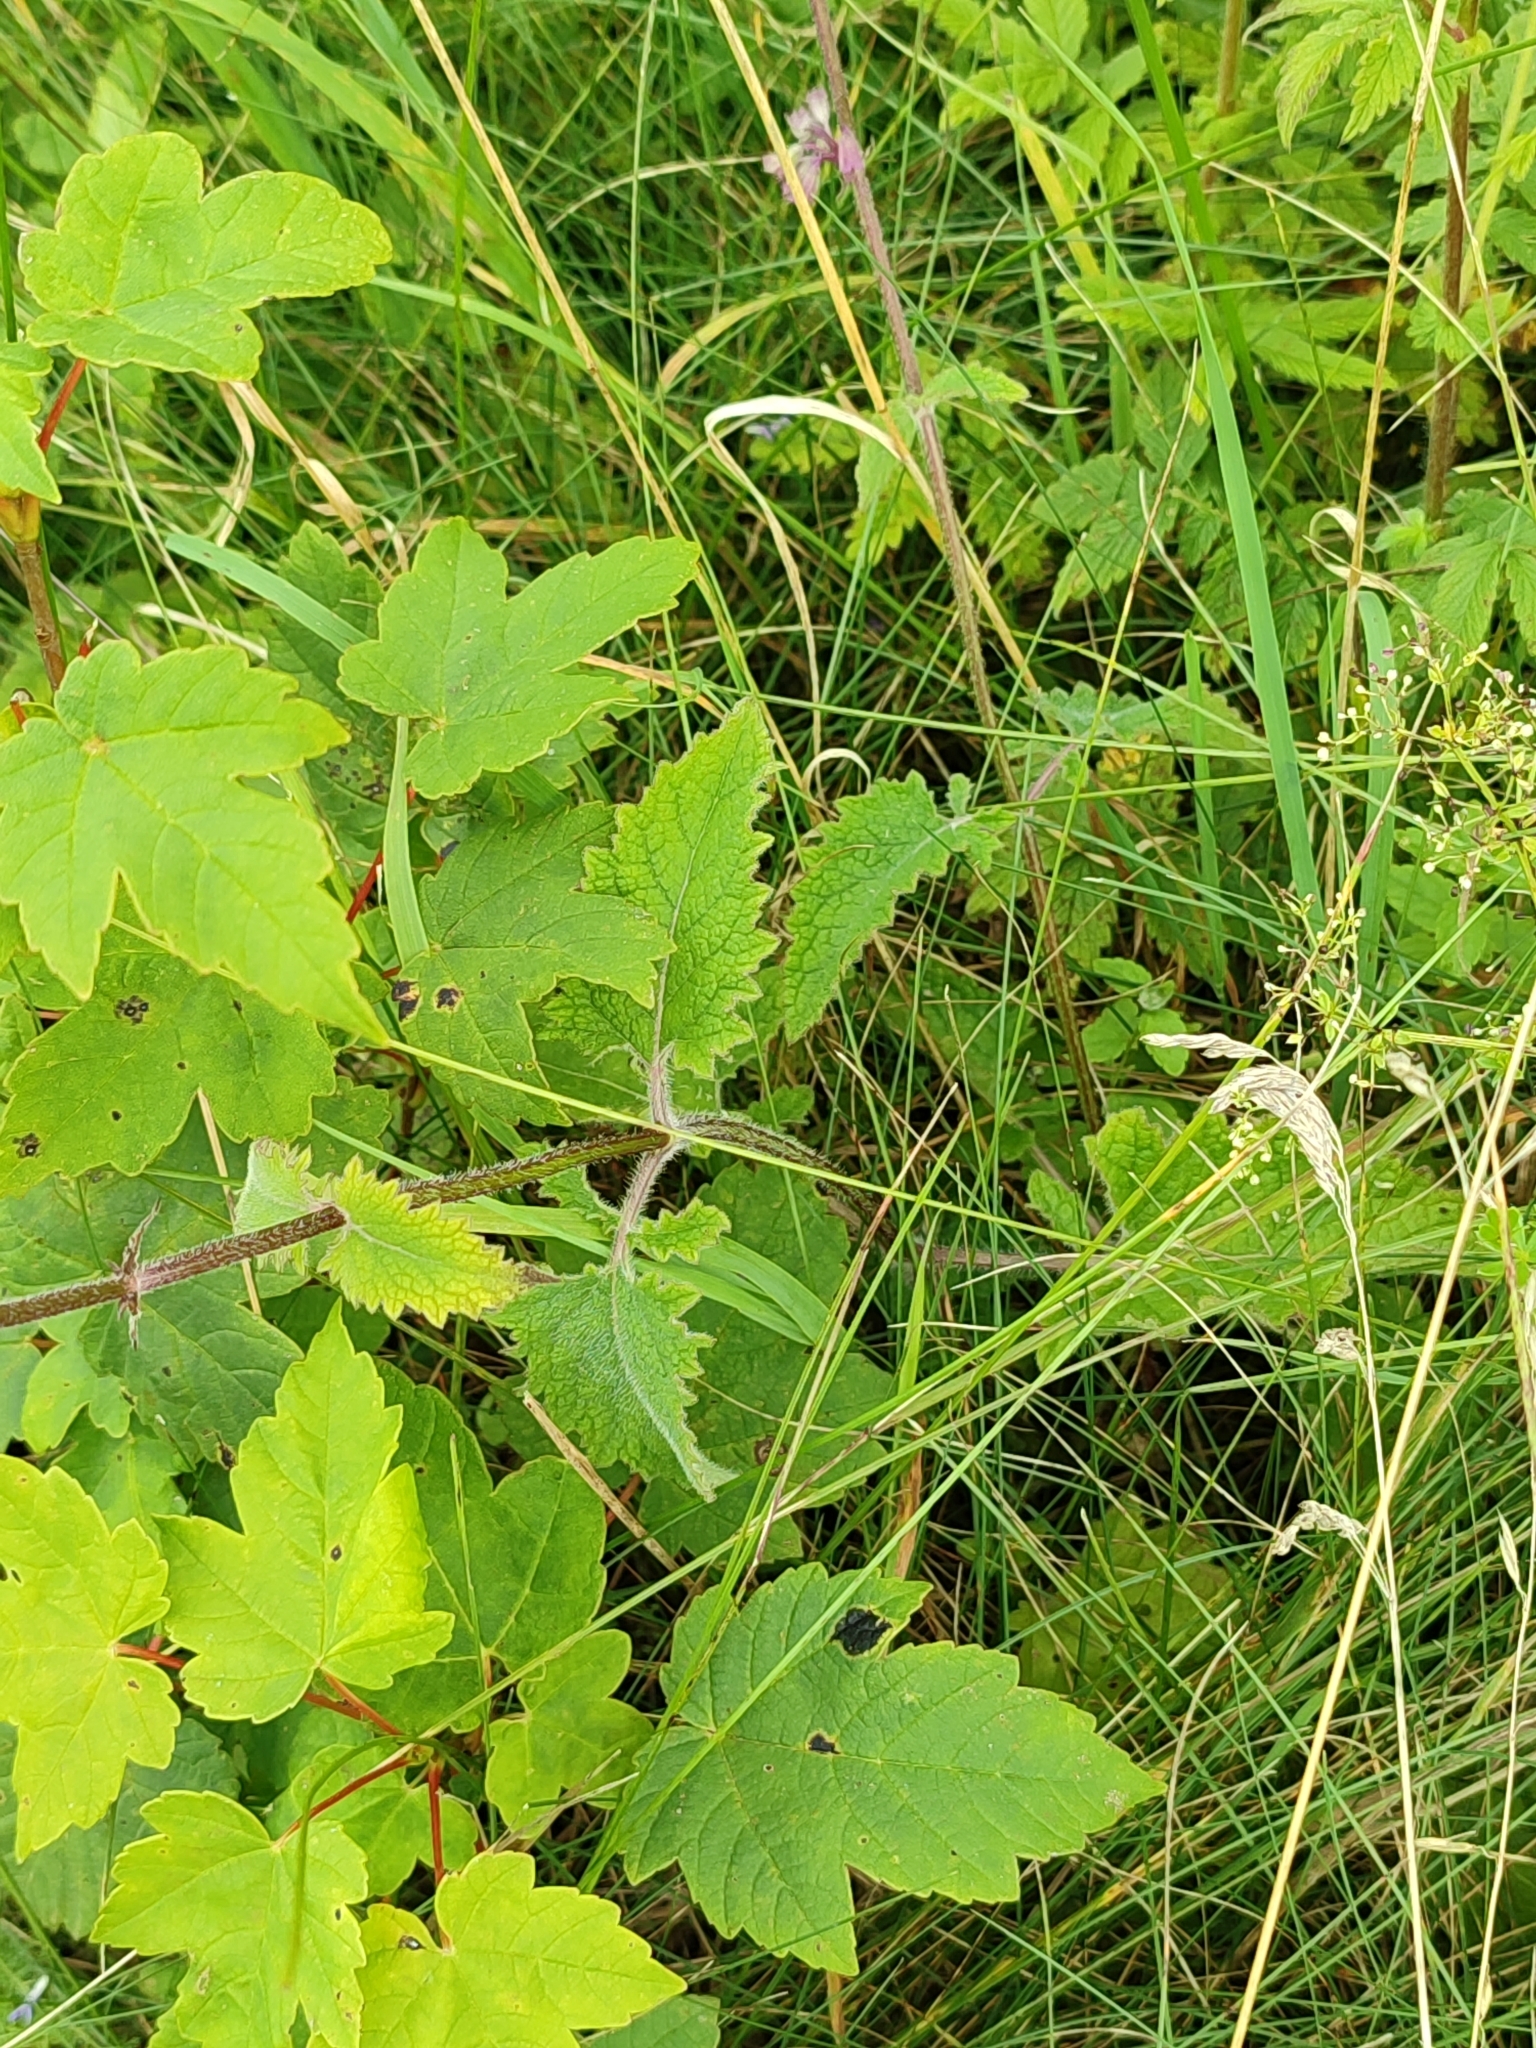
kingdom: Plantae
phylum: Tracheophyta
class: Magnoliopsida
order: Lamiales
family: Lamiaceae
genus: Salvia
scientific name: Salvia verticillata
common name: Whorled clary
